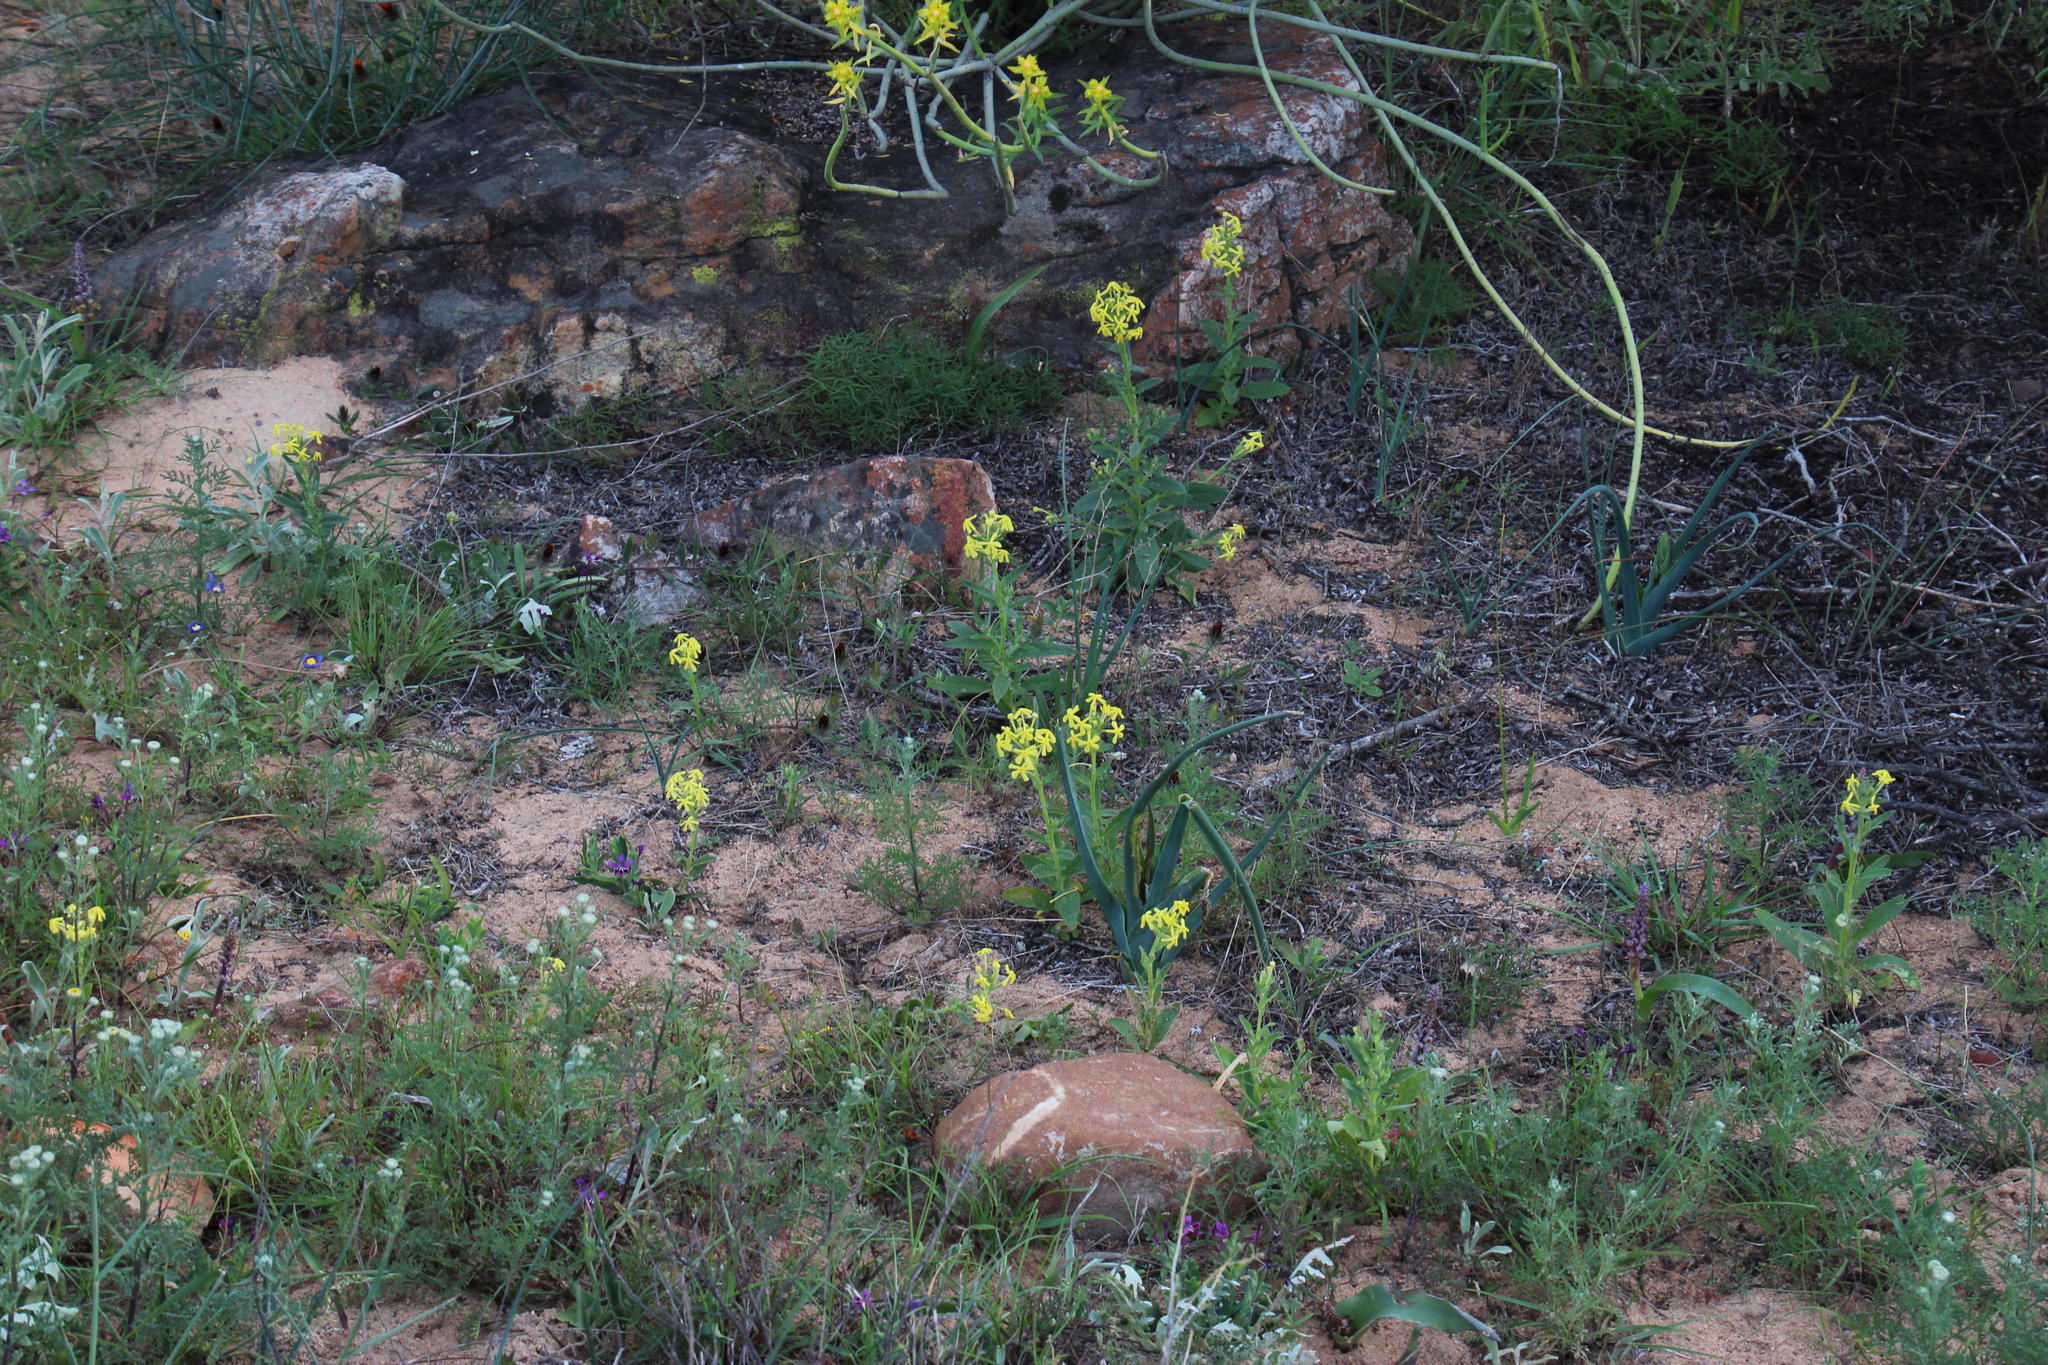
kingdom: Plantae
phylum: Tracheophyta
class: Magnoliopsida
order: Lamiales
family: Scrophulariaceae
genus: Lyperia
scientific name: Lyperia tristis
